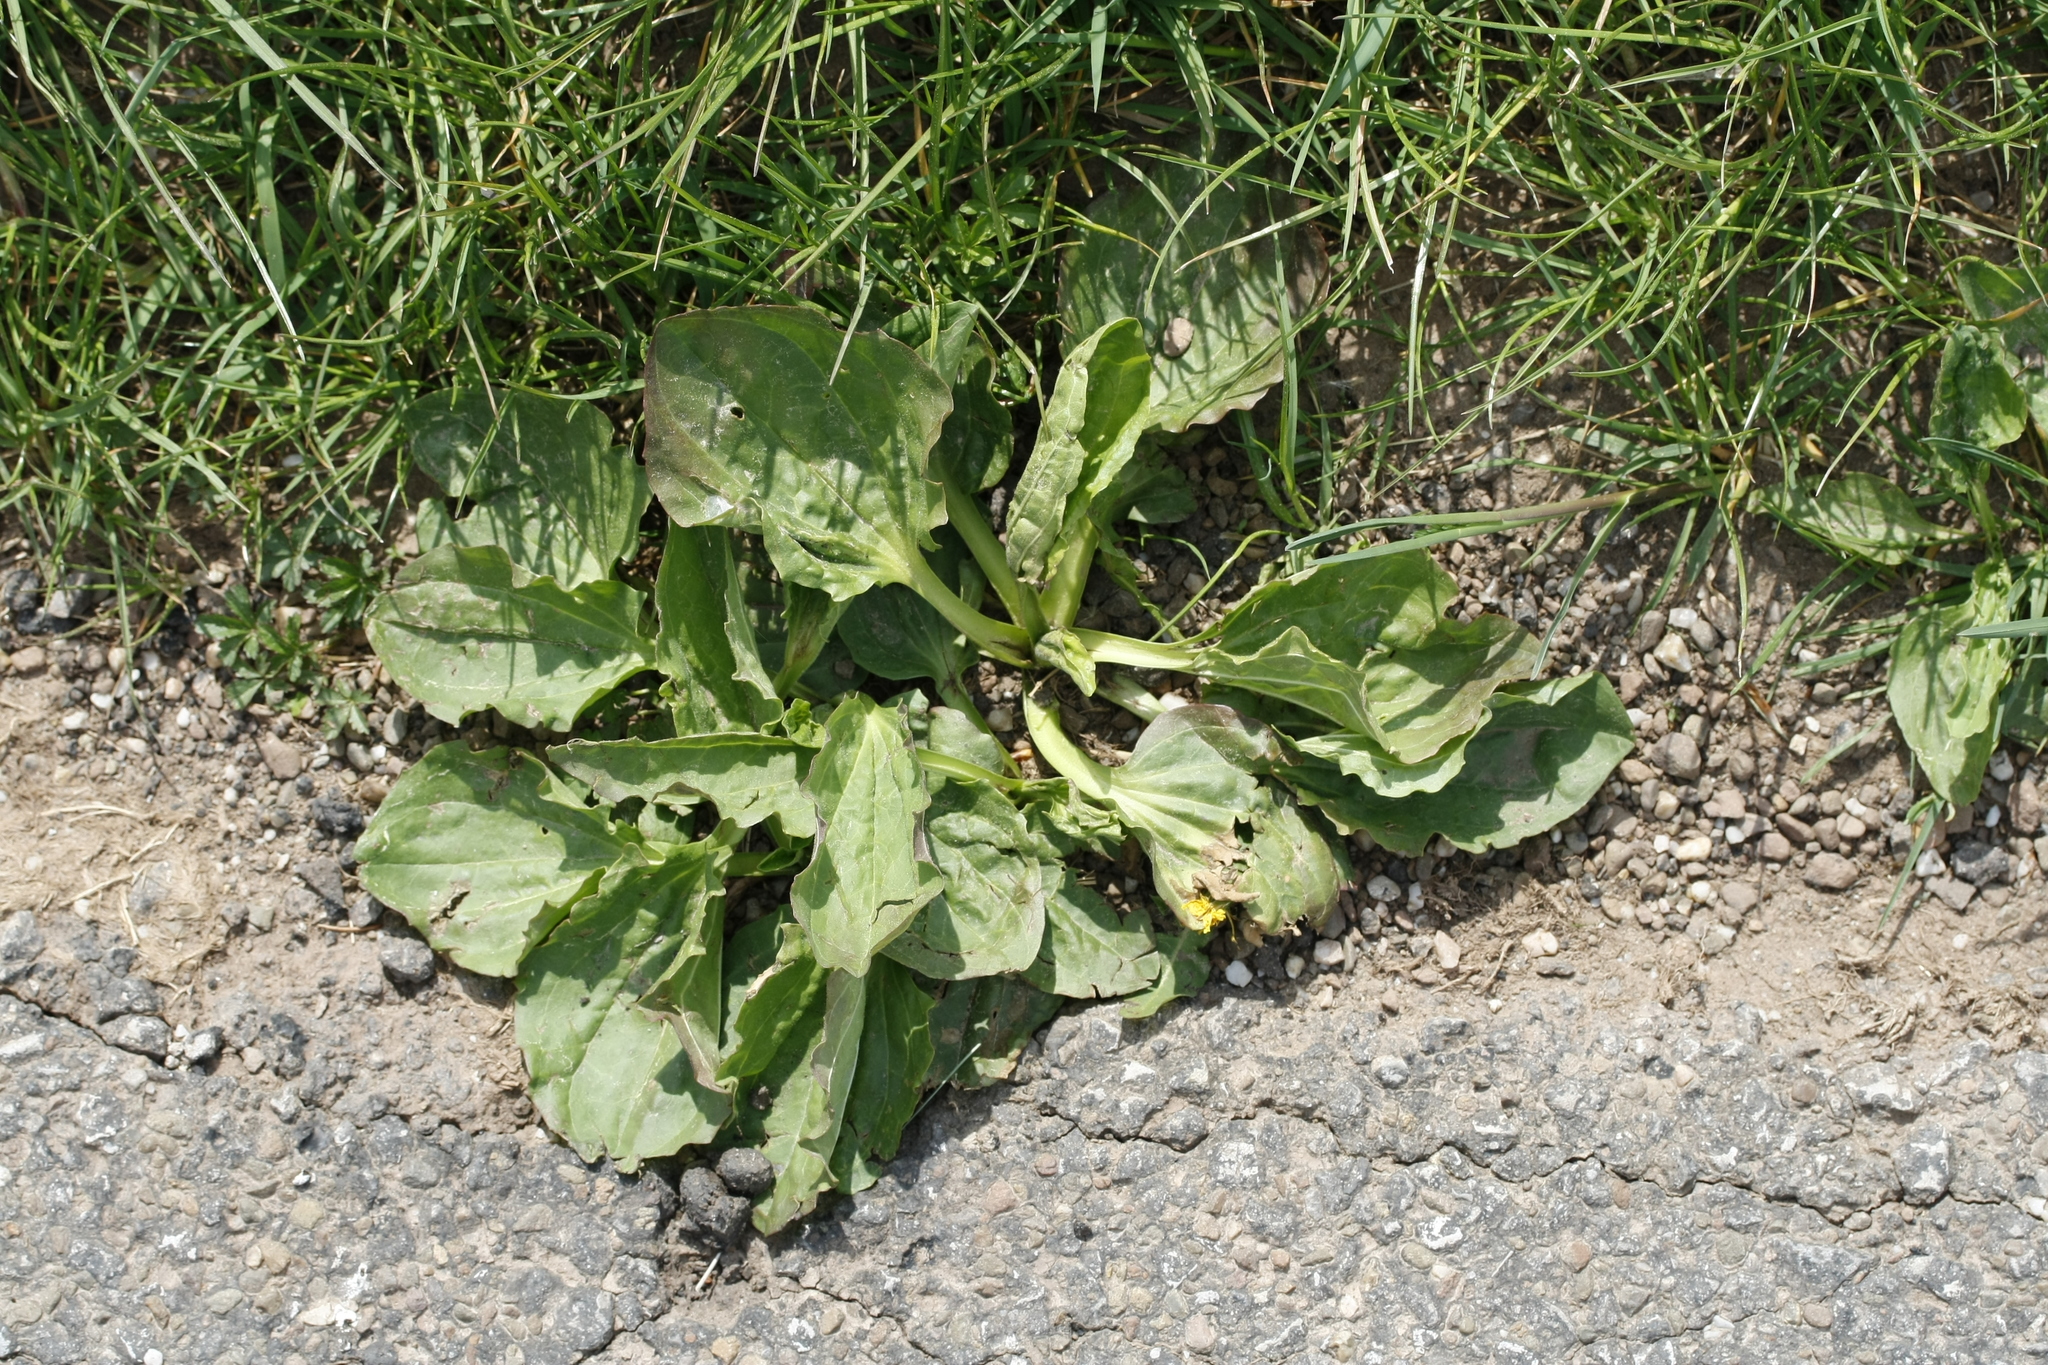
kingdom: Plantae
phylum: Tracheophyta
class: Magnoliopsida
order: Lamiales
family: Plantaginaceae
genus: Plantago
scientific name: Plantago major
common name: Common plantain
